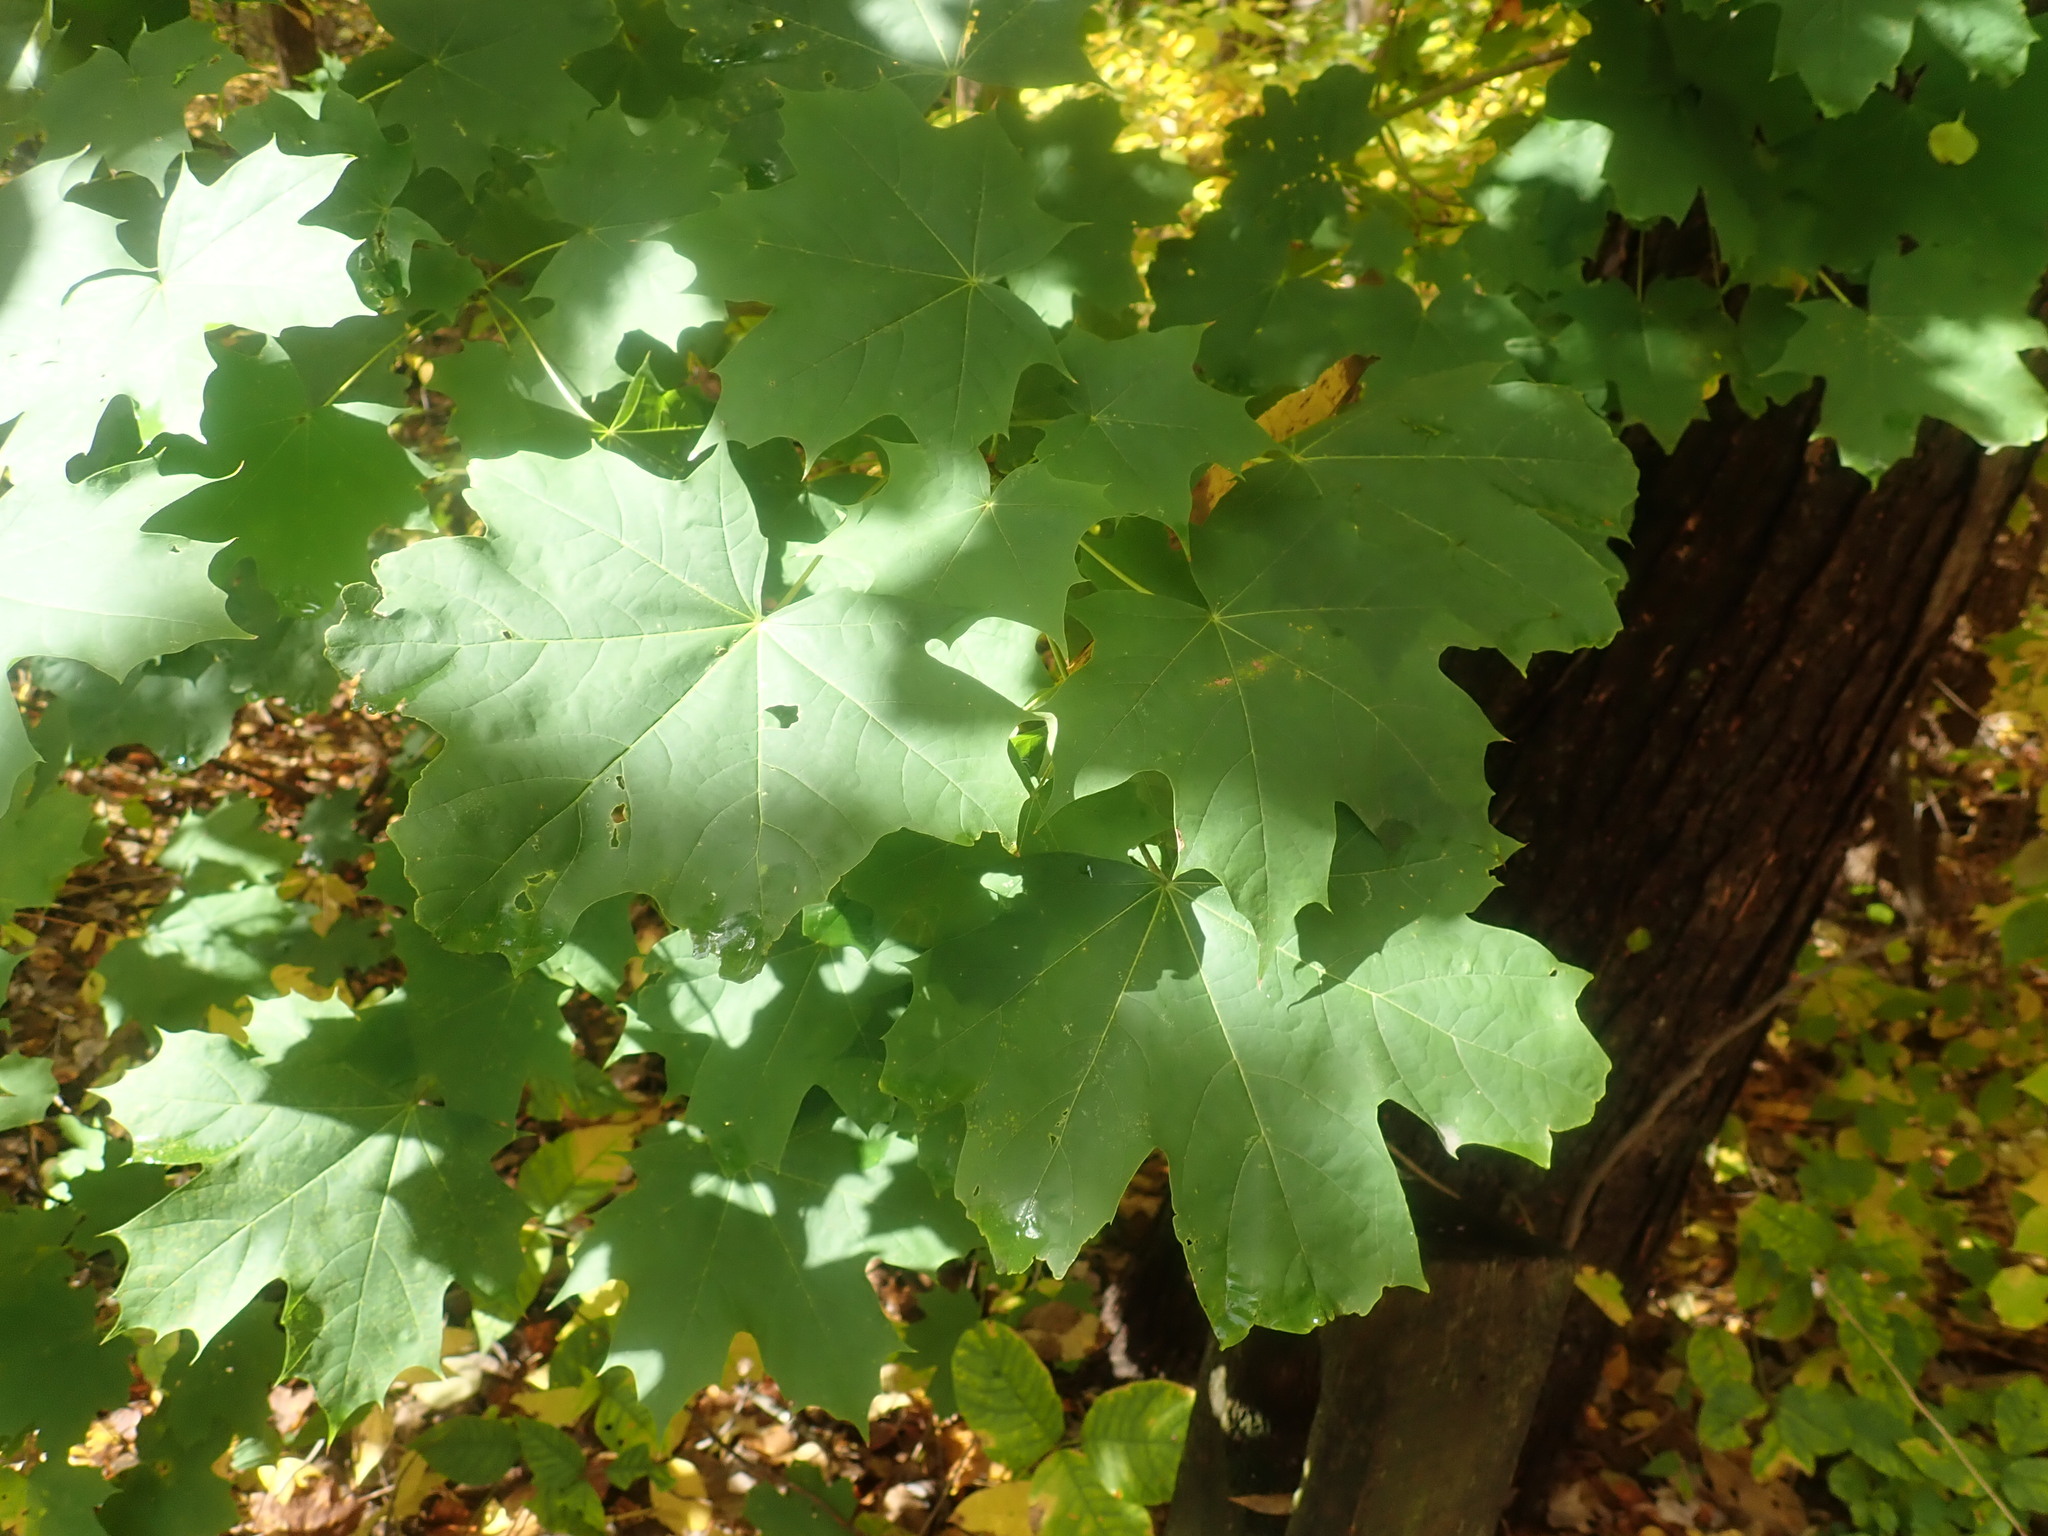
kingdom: Plantae
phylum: Tracheophyta
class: Magnoliopsida
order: Sapindales
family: Sapindaceae
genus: Acer
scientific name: Acer platanoides
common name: Norway maple
